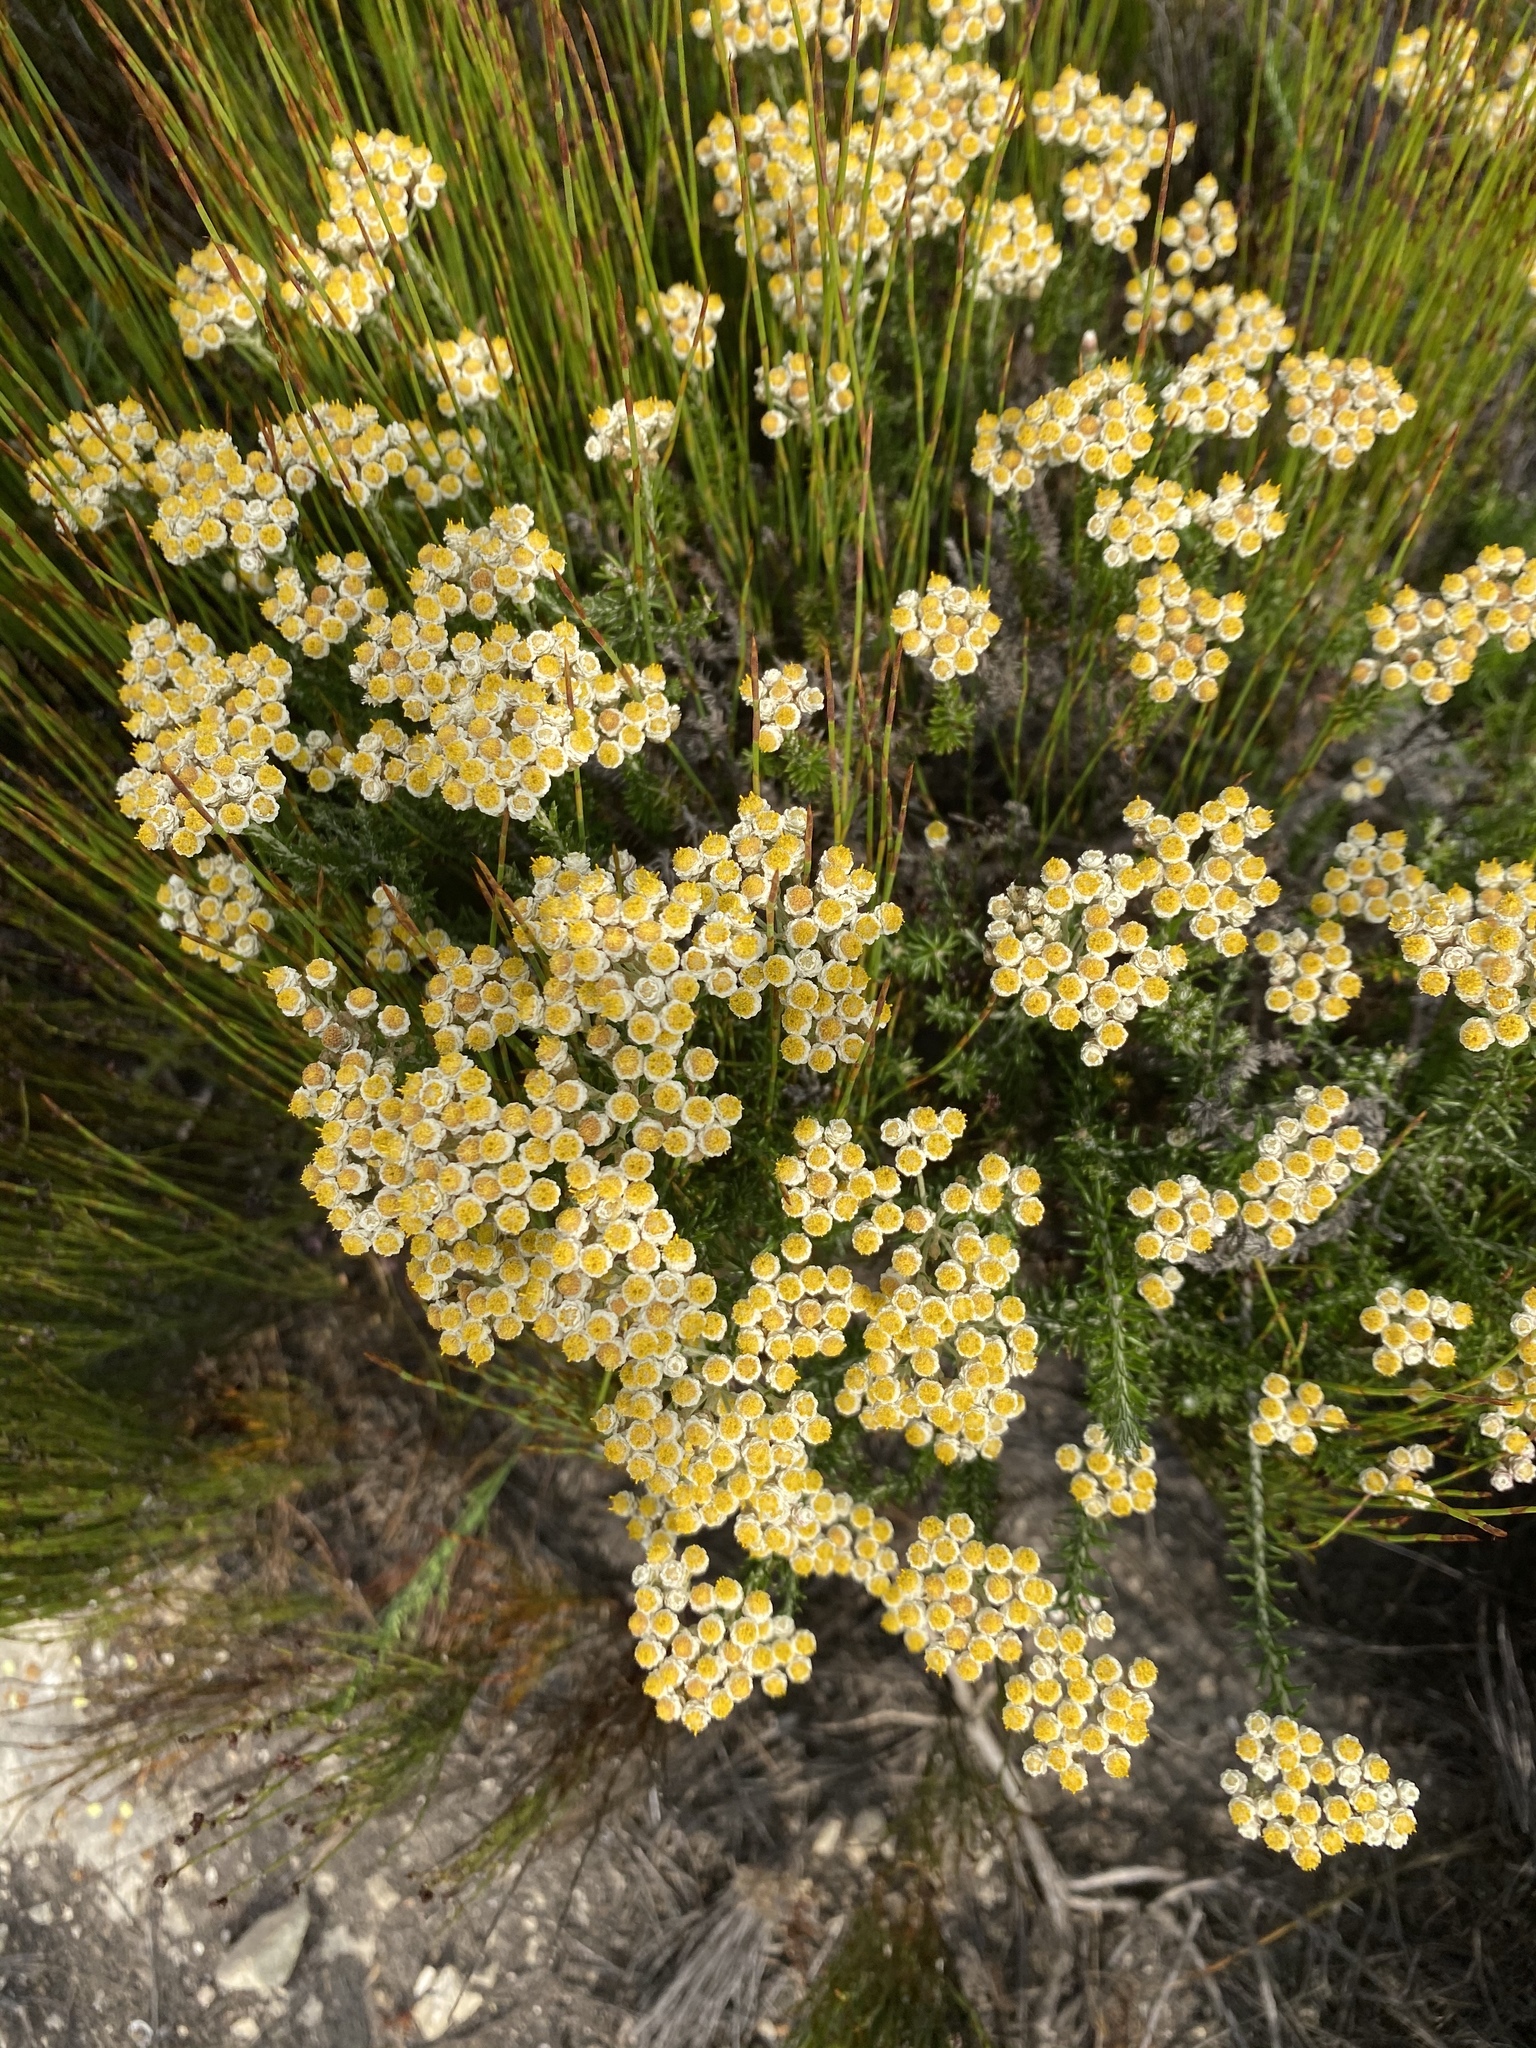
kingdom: Plantae
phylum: Tracheophyta
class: Magnoliopsida
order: Asterales
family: Asteraceae
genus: Helichrysum
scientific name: Helichrysum teretifolium
